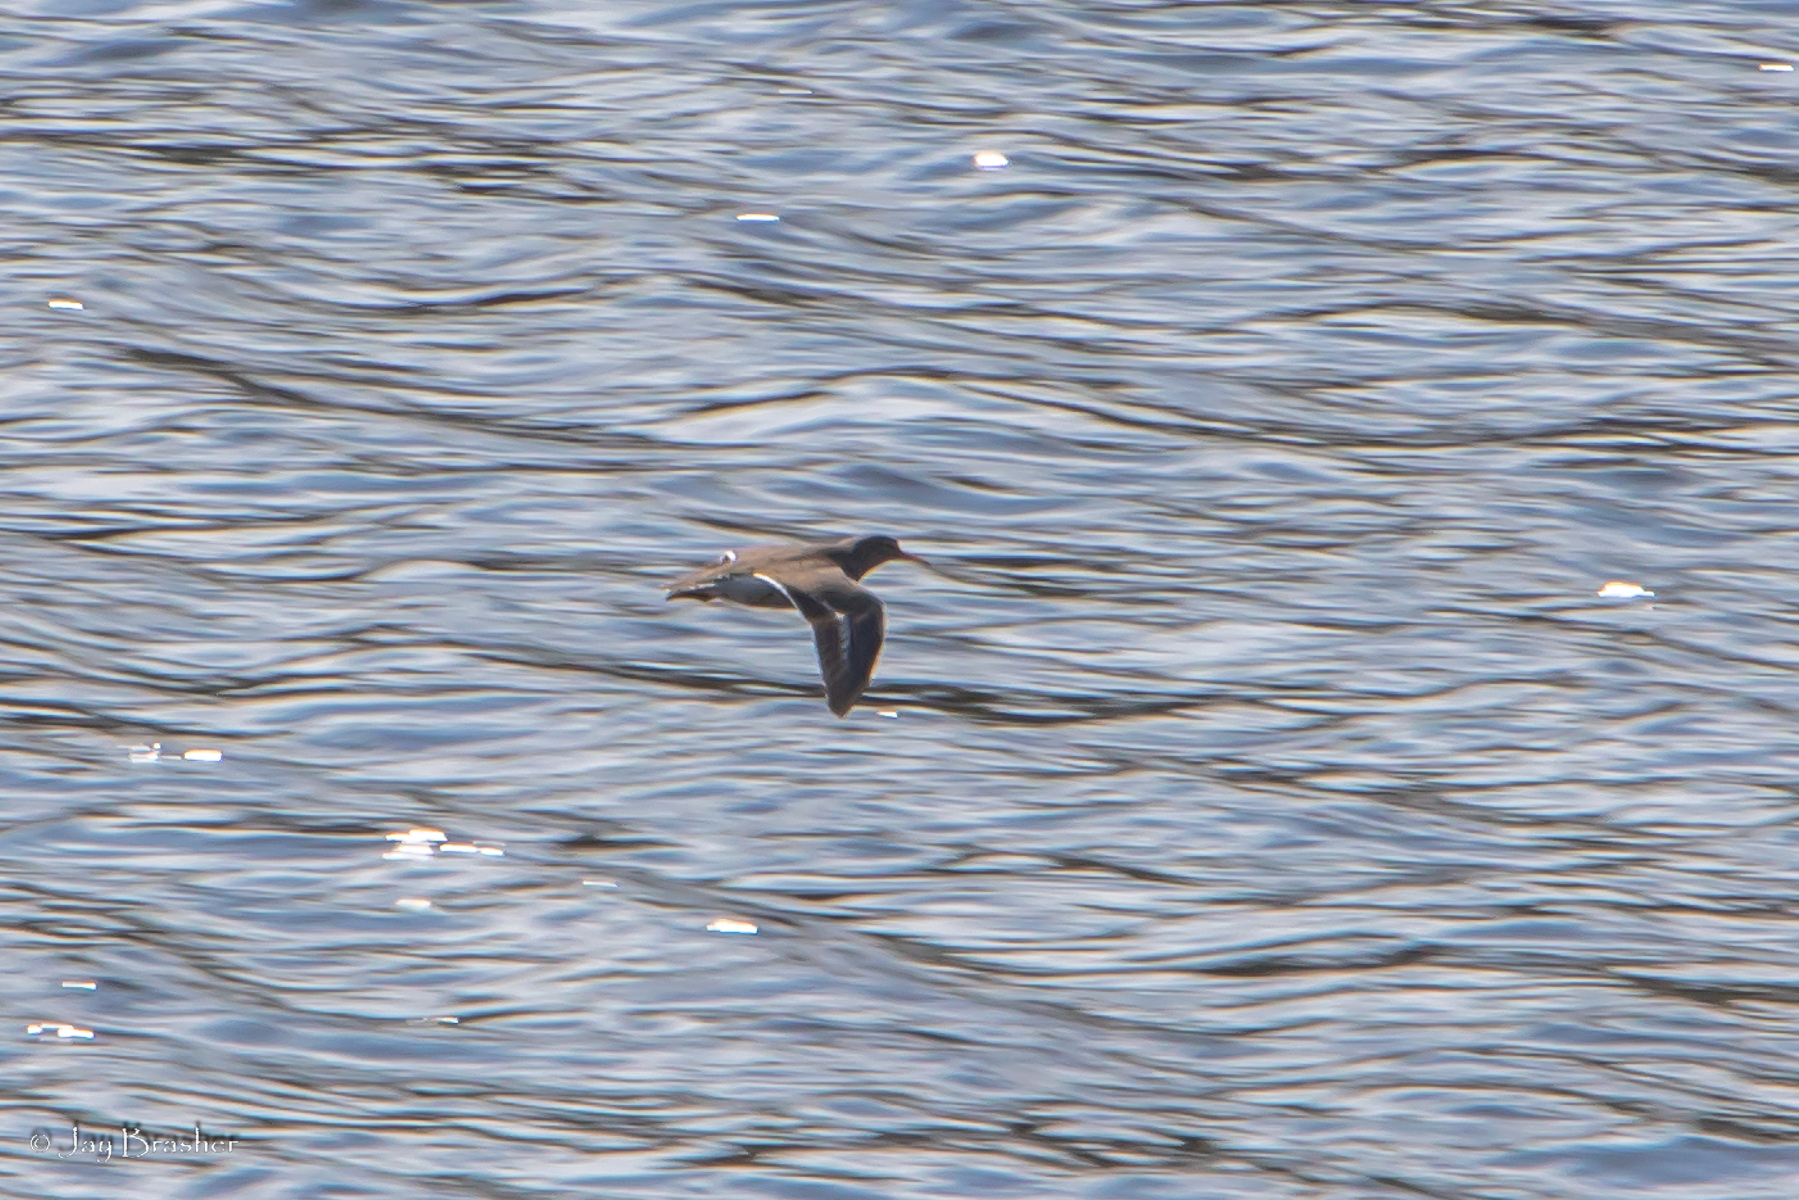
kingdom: Animalia
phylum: Chordata
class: Aves
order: Charadriiformes
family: Scolopacidae
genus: Actitis
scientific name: Actitis macularius
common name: Spotted sandpiper
